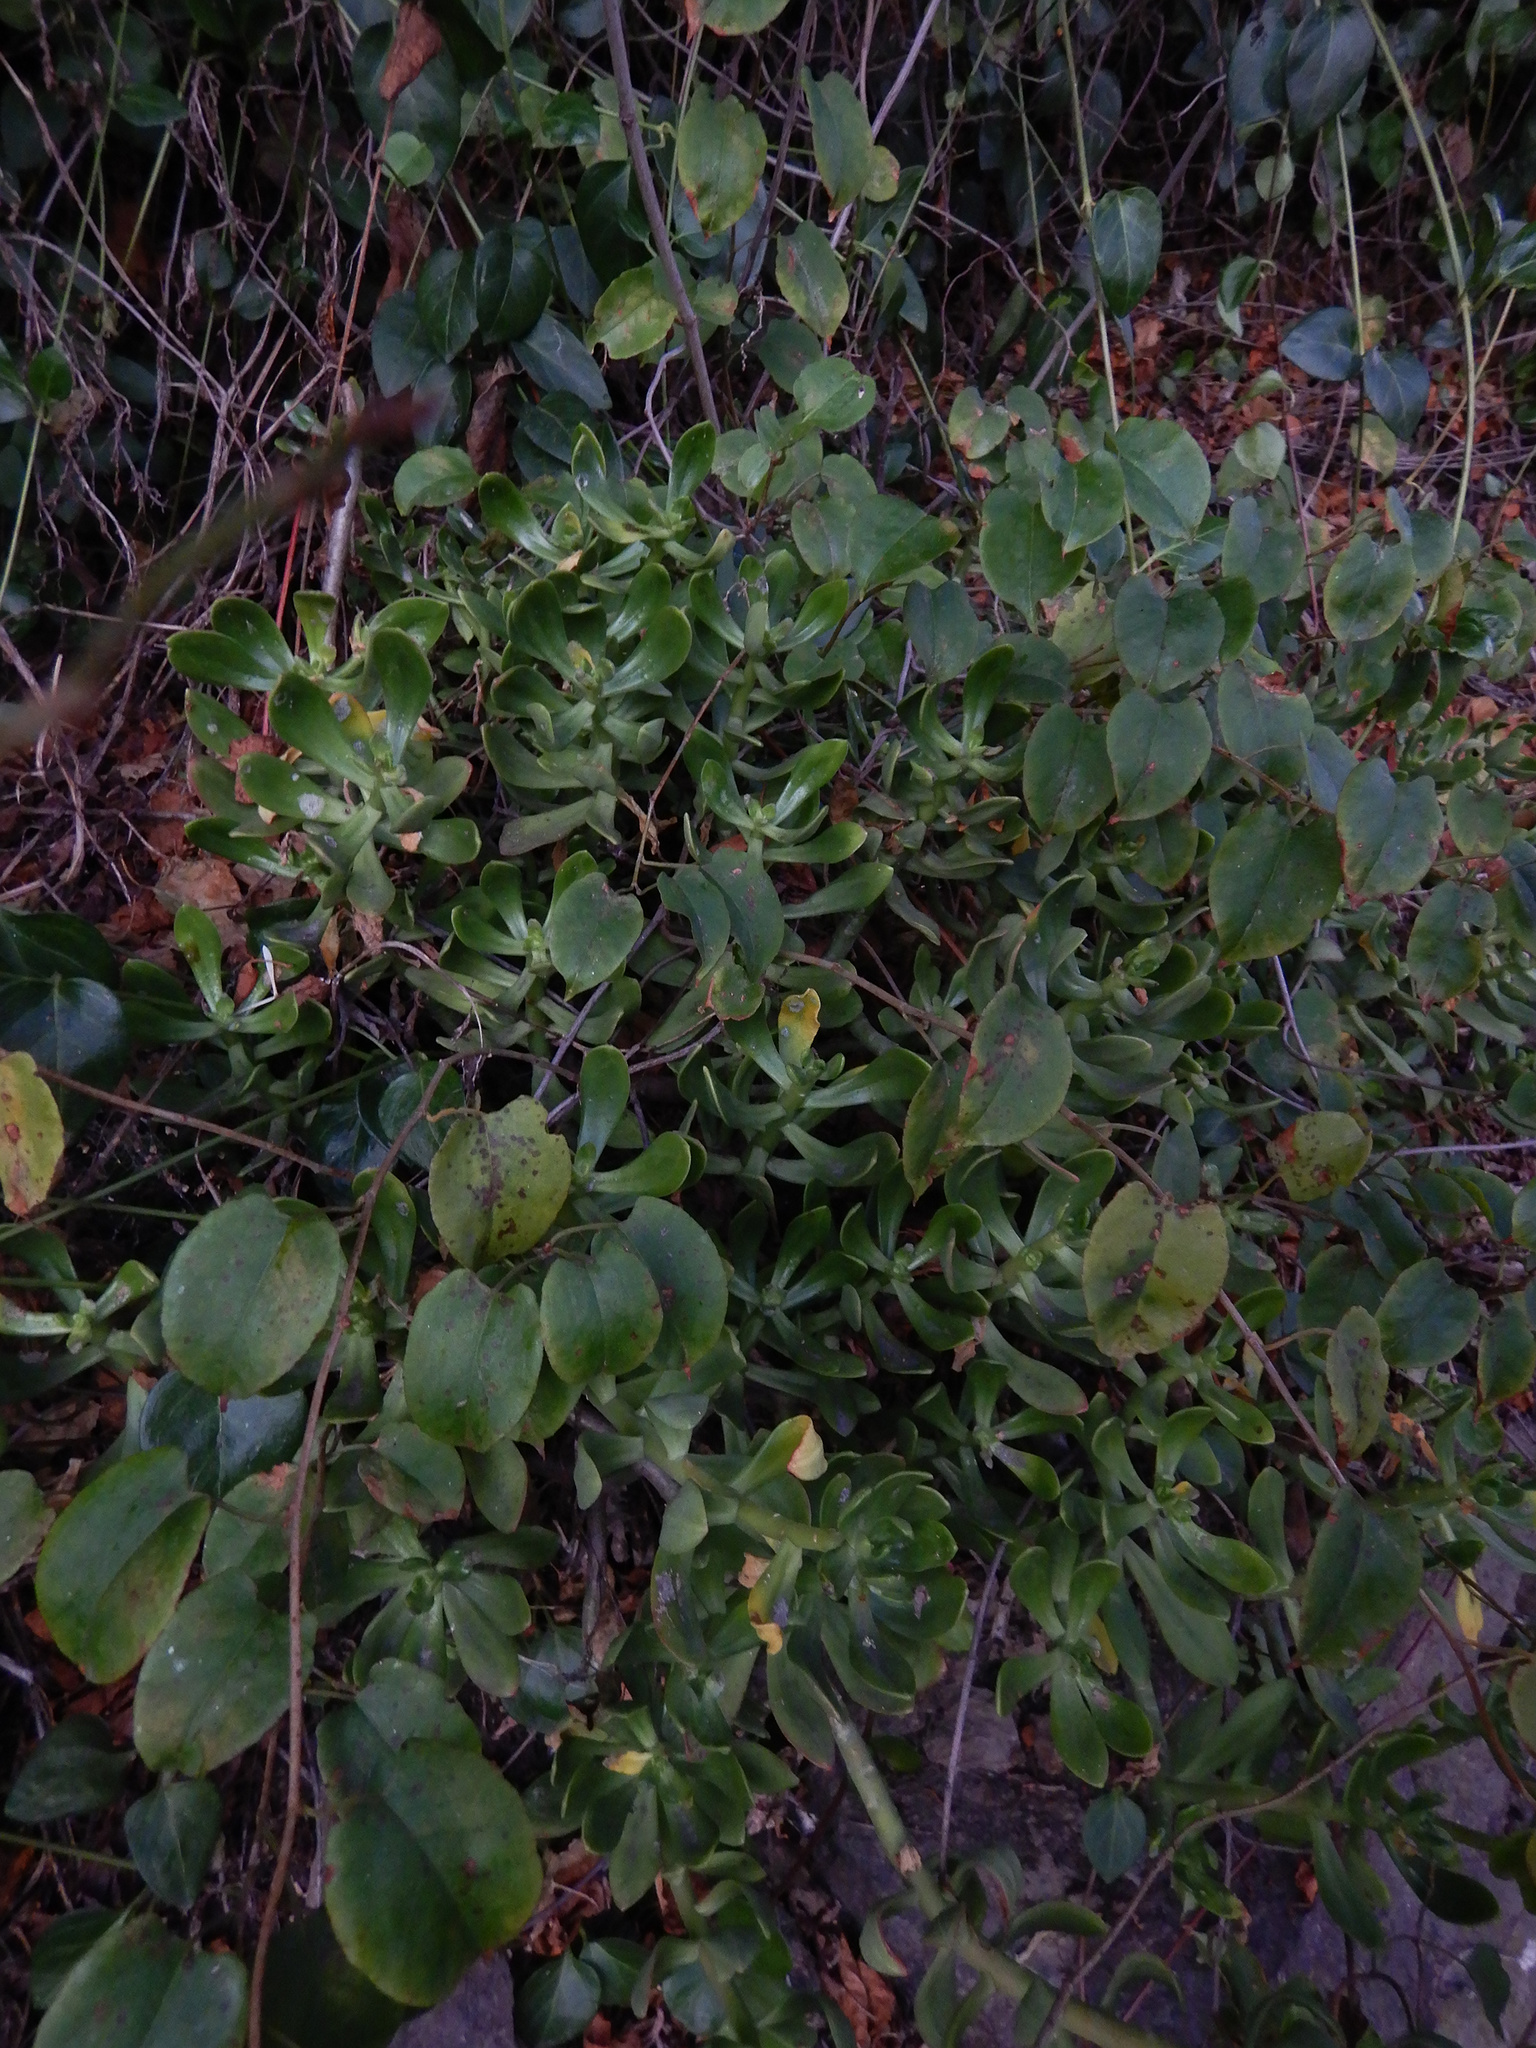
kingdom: Plantae
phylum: Tracheophyta
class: Magnoliopsida
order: Saxifragales
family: Crassulaceae
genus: Sedum
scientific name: Sedum praealtum
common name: Greater mexican-stonecrop
